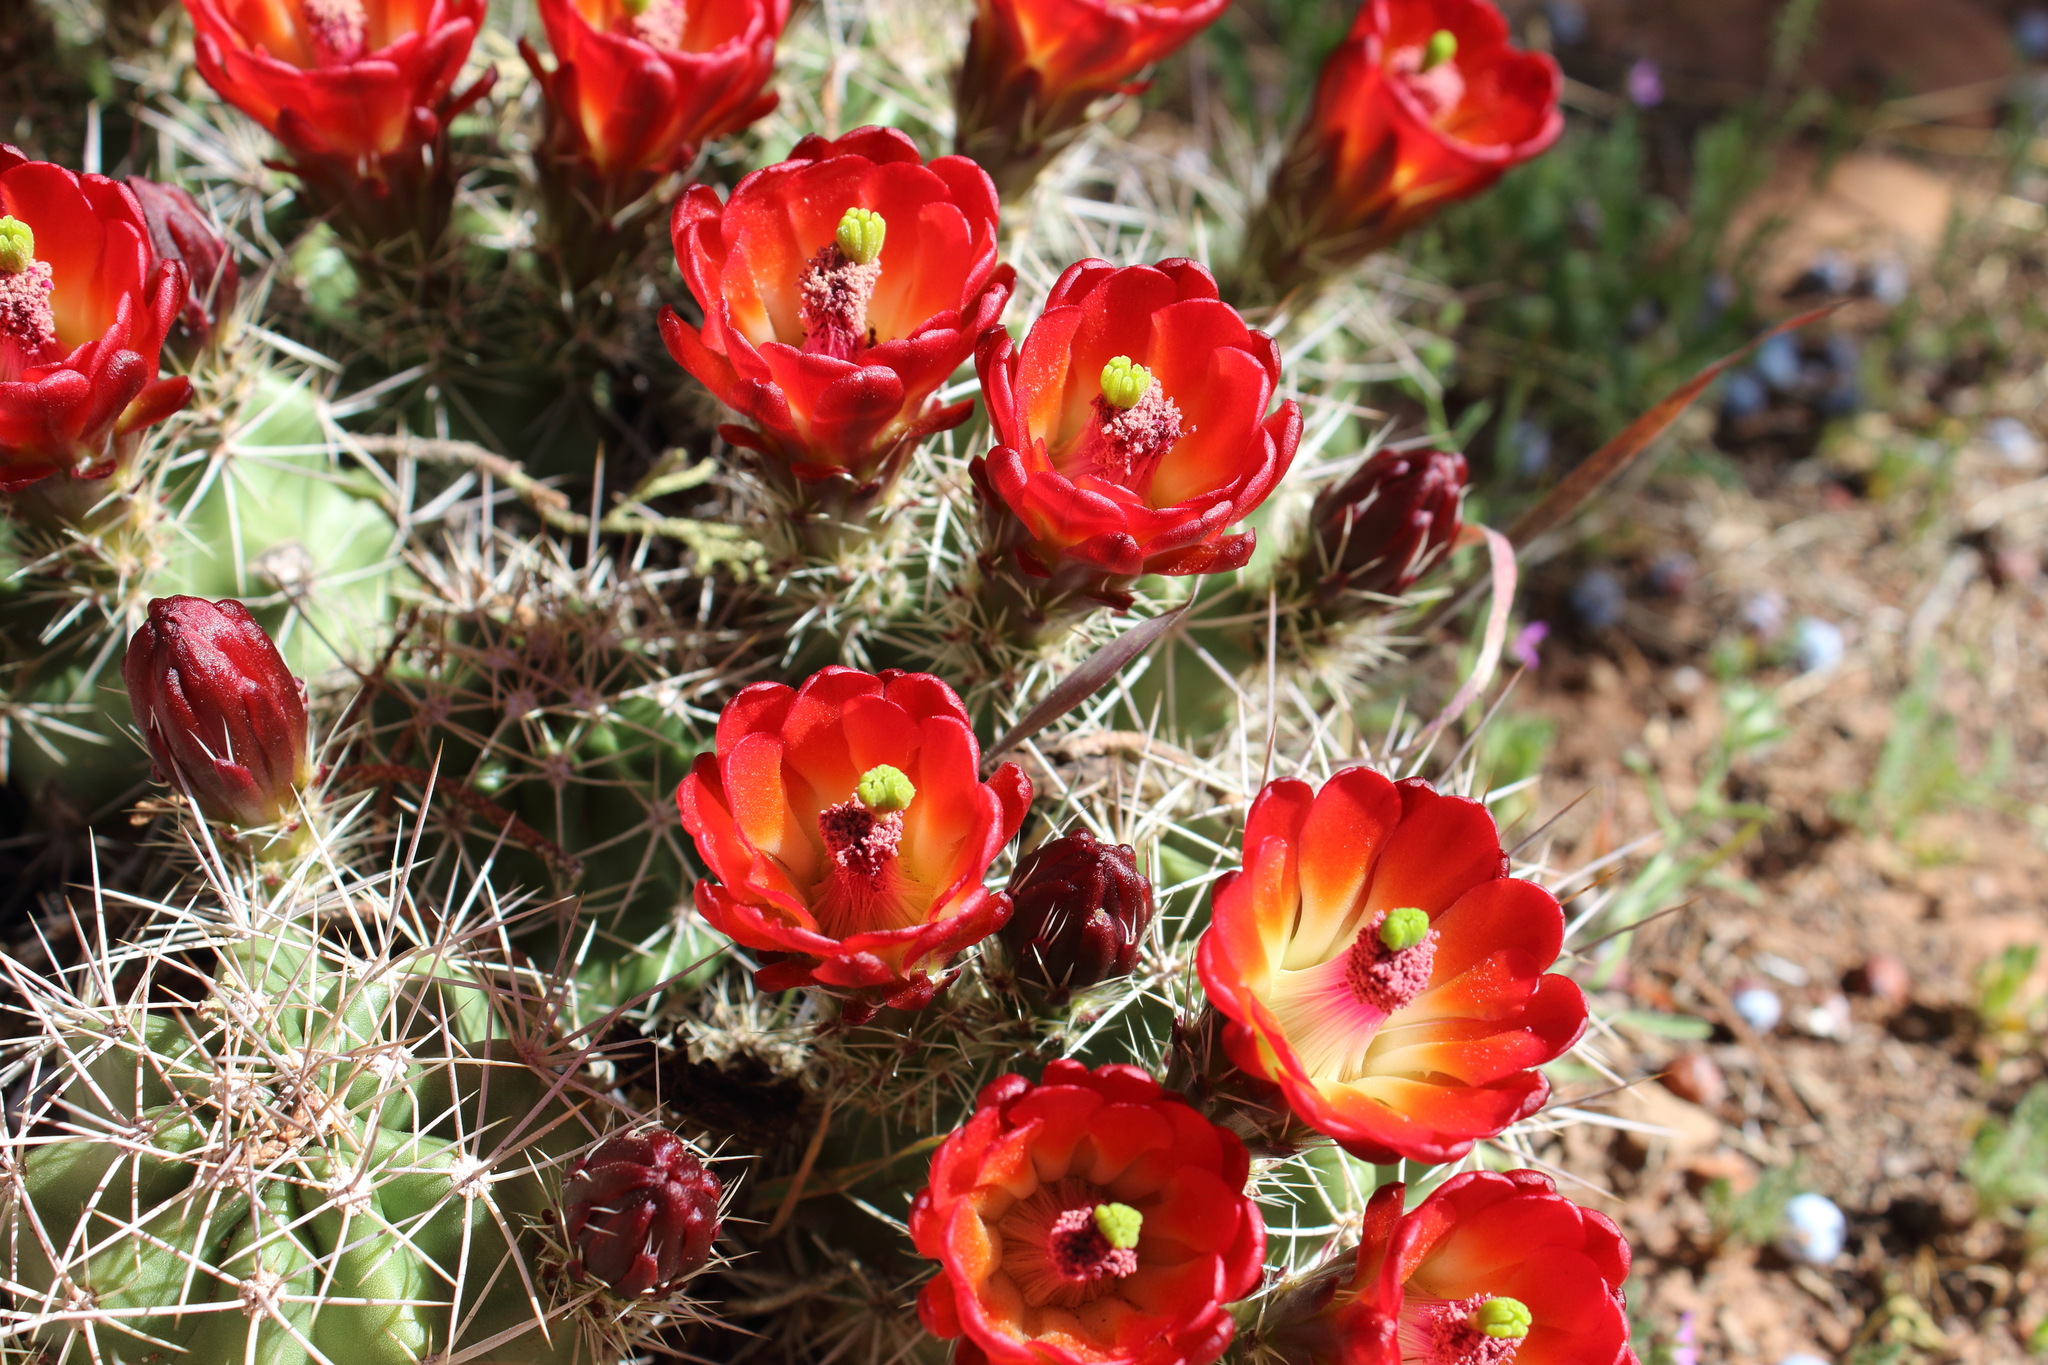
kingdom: Plantae
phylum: Tracheophyta
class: Magnoliopsida
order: Caryophyllales
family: Cactaceae
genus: Echinocereus
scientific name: Echinocereus triglochidiatus
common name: Claretcup hedgehog
